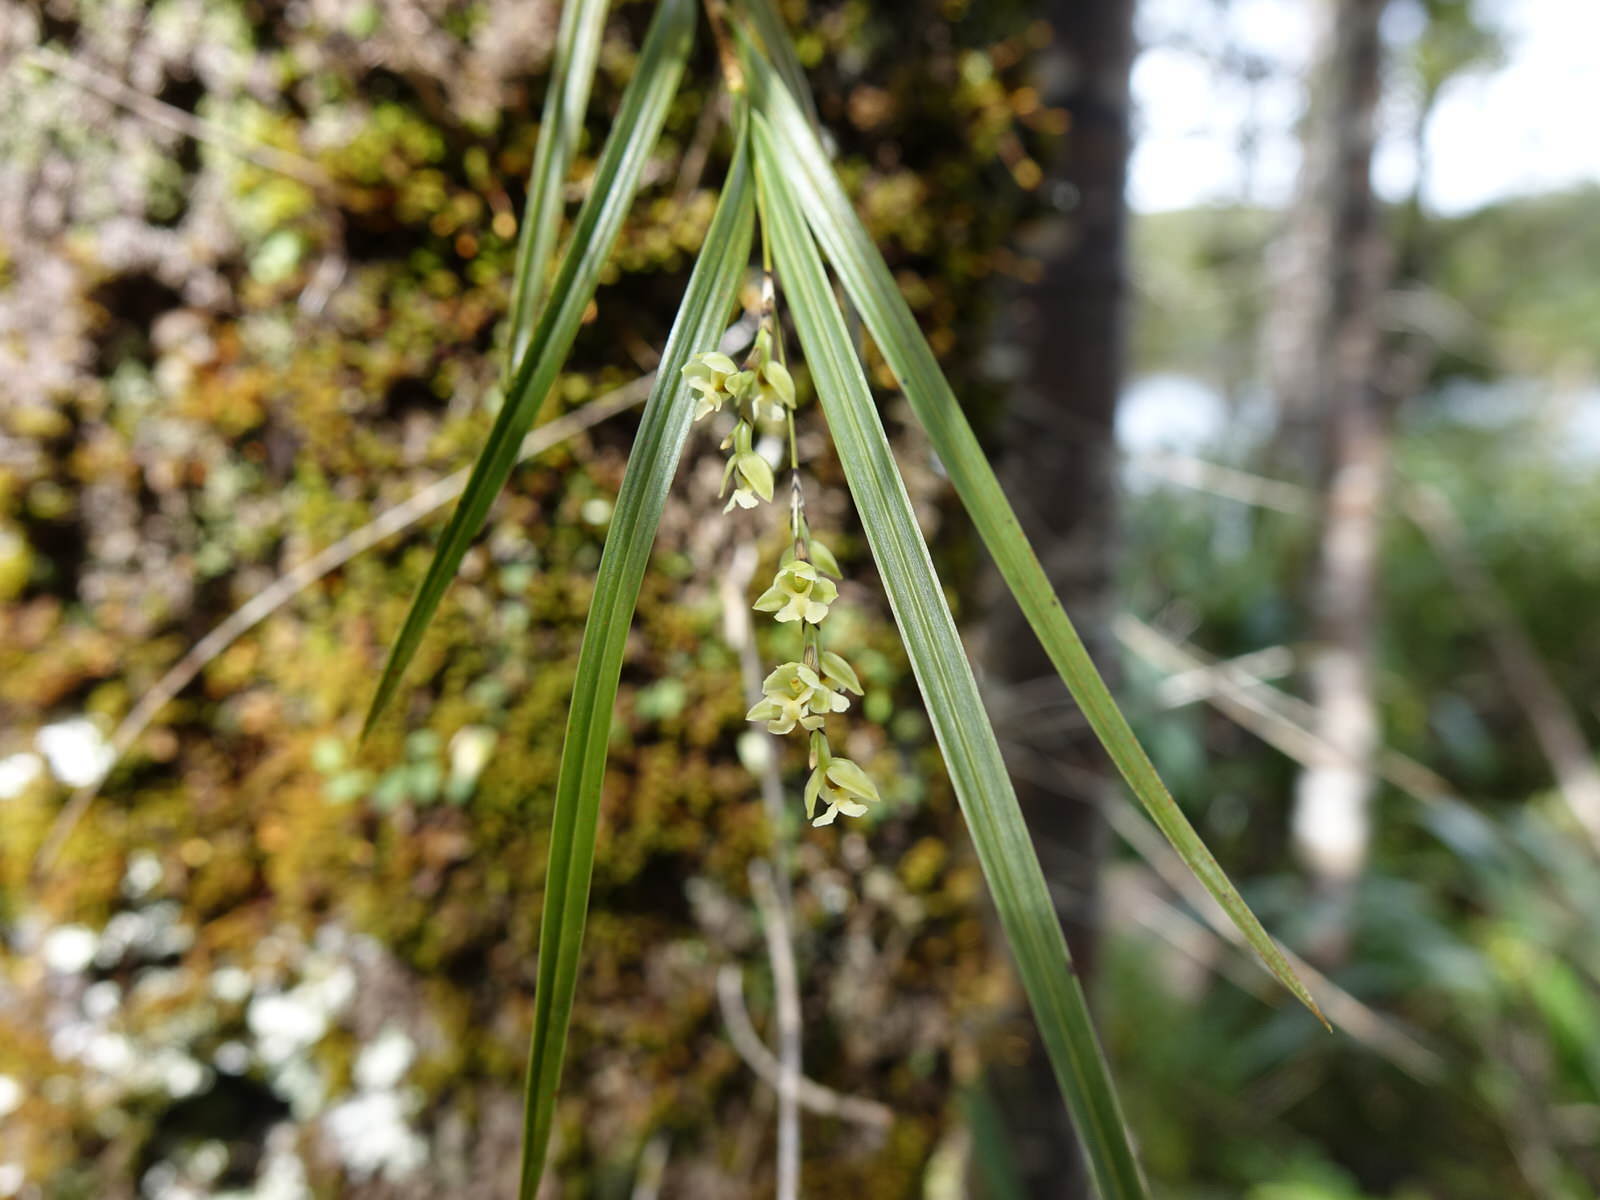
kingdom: Plantae
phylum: Tracheophyta
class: Liliopsida
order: Asparagales
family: Orchidaceae
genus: Earina
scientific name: Earina mucronata
